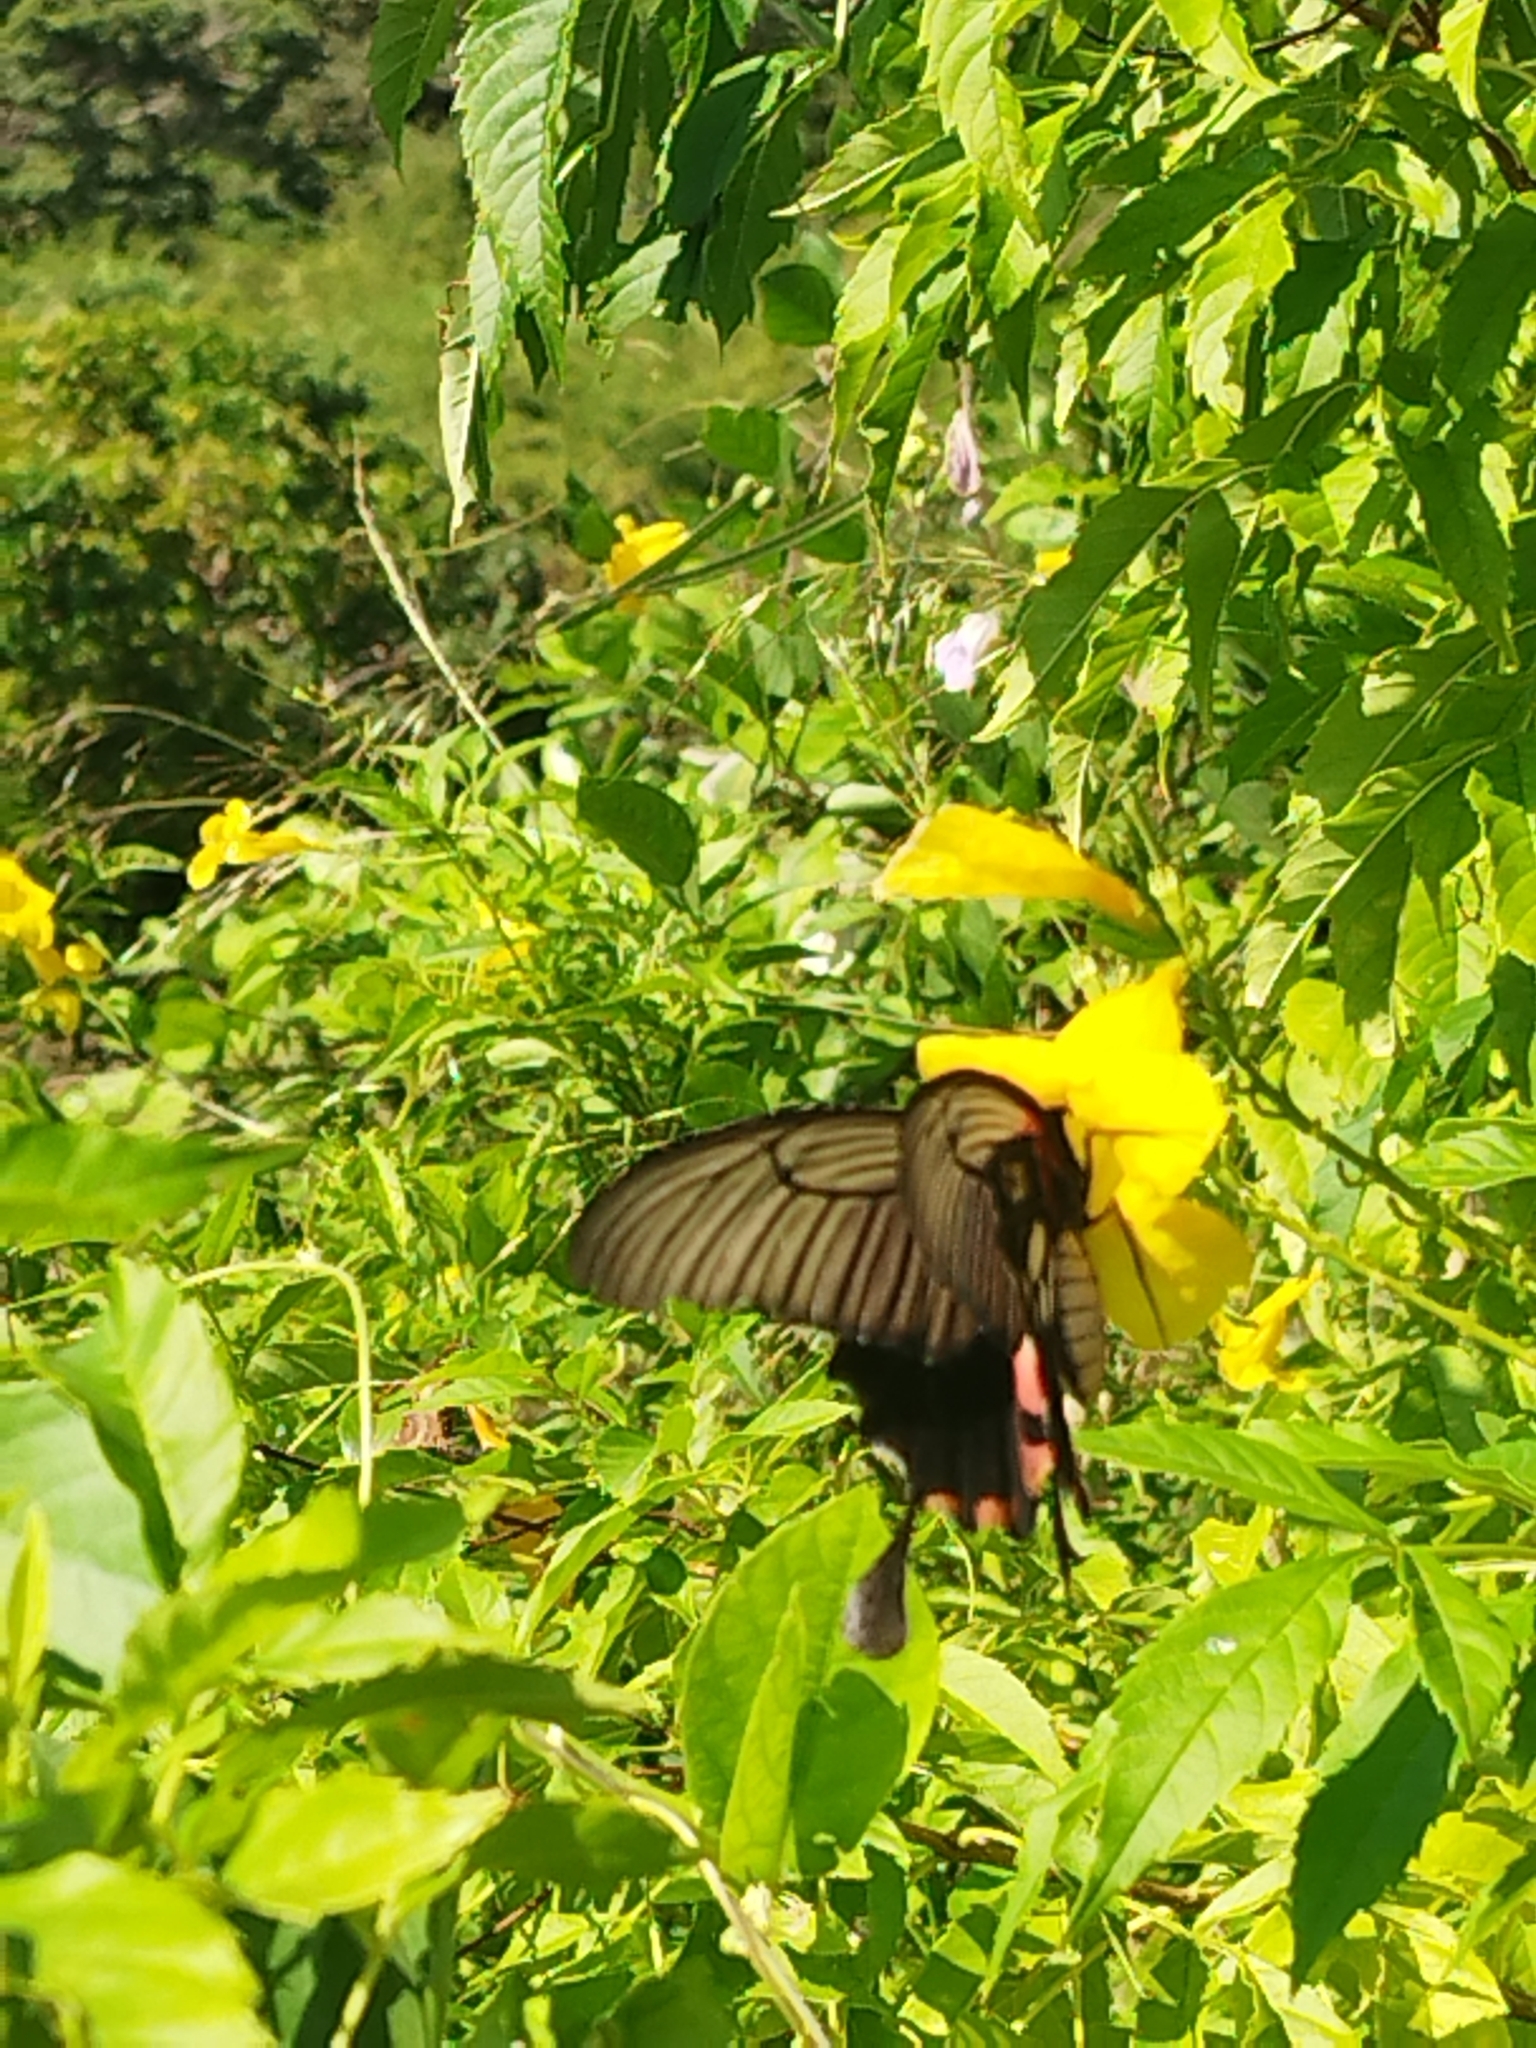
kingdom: Animalia
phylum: Arthropoda
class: Insecta
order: Lepidoptera
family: Papilionidae
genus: Papilio
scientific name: Papilio memnon
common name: Great mormon
